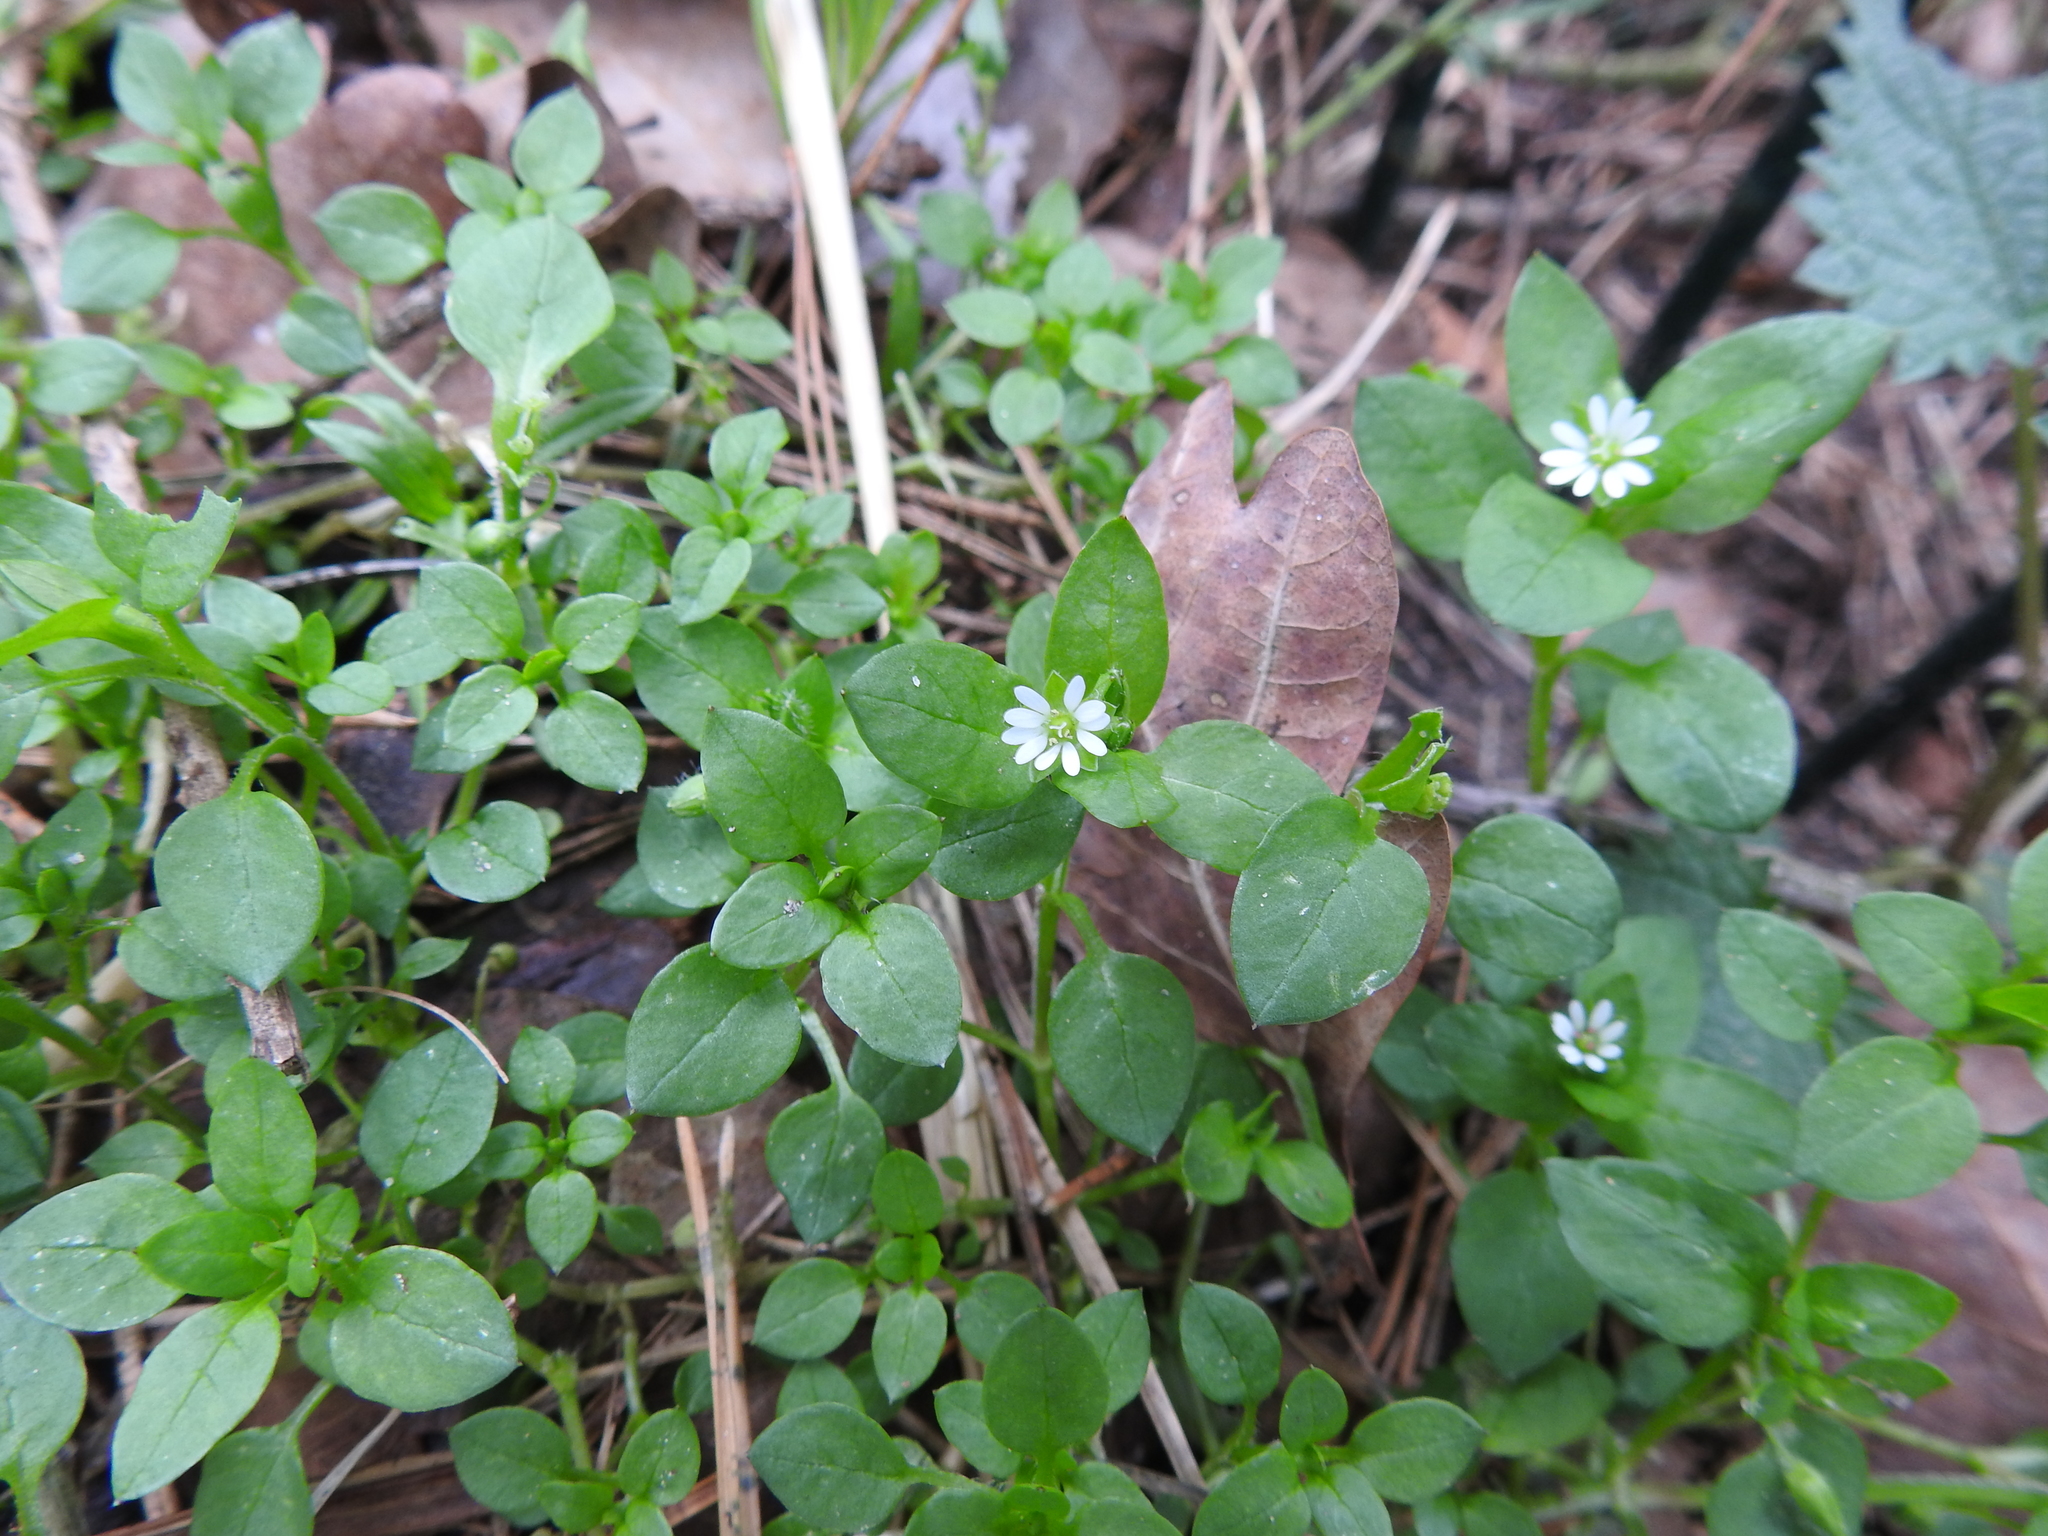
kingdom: Plantae
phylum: Tracheophyta
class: Magnoliopsida
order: Caryophyllales
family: Caryophyllaceae
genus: Stellaria
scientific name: Stellaria media
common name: Common chickweed
